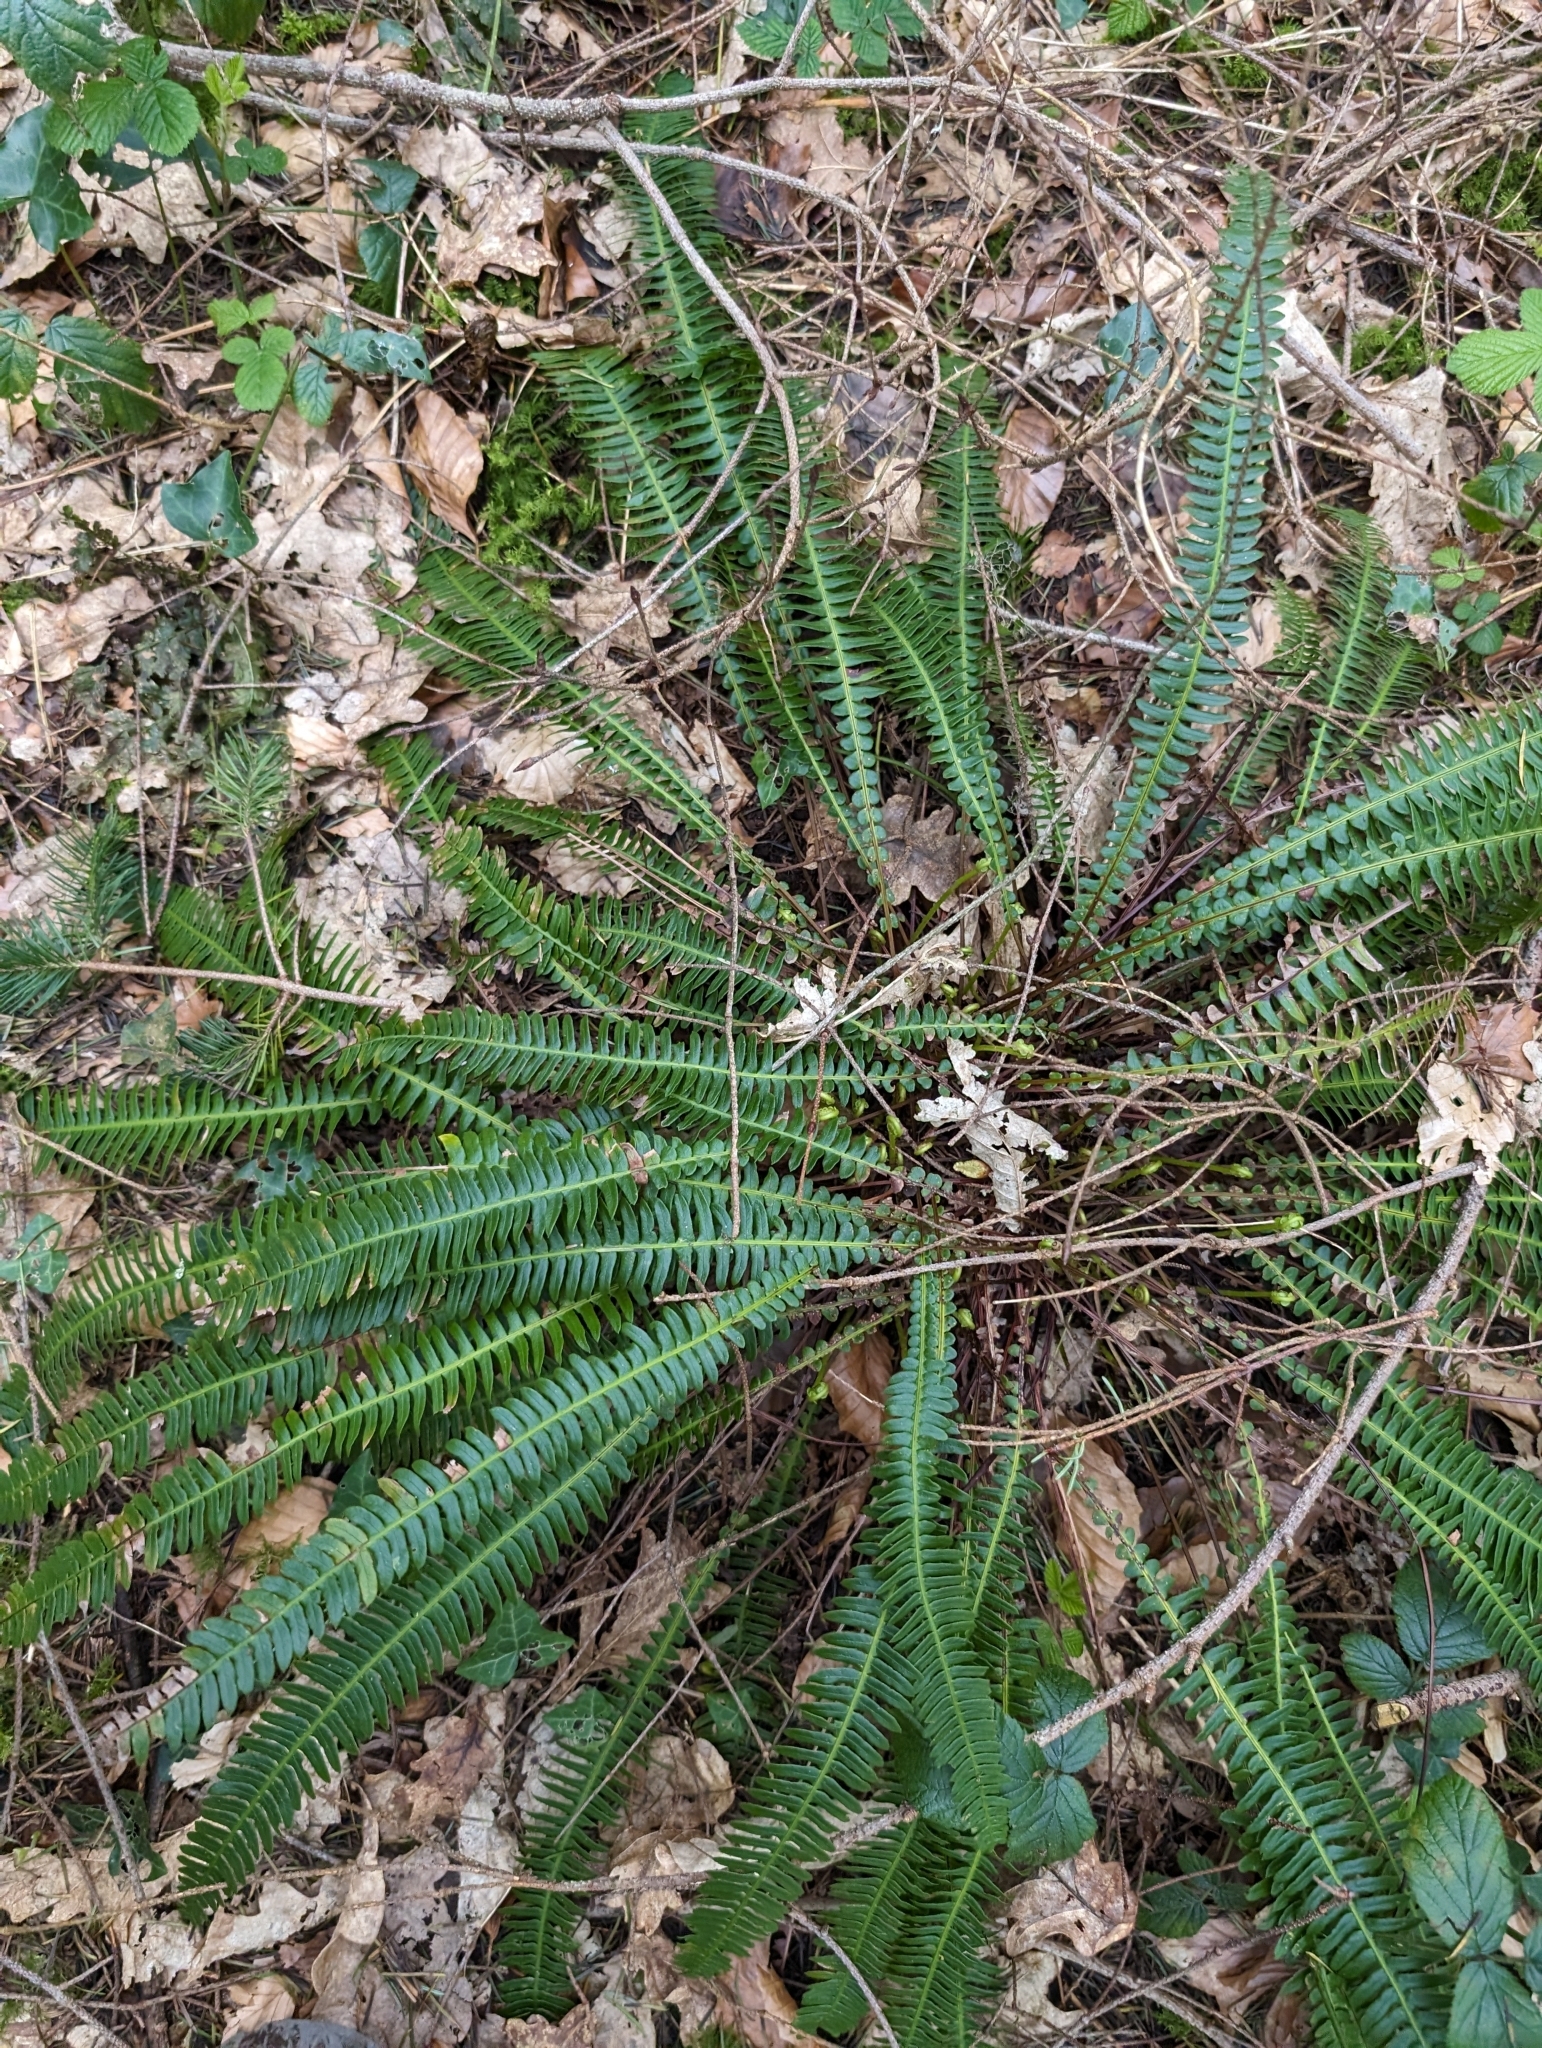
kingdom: Plantae
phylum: Tracheophyta
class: Polypodiopsida
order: Polypodiales
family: Blechnaceae
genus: Struthiopteris
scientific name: Struthiopteris spicant
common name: Deer fern
